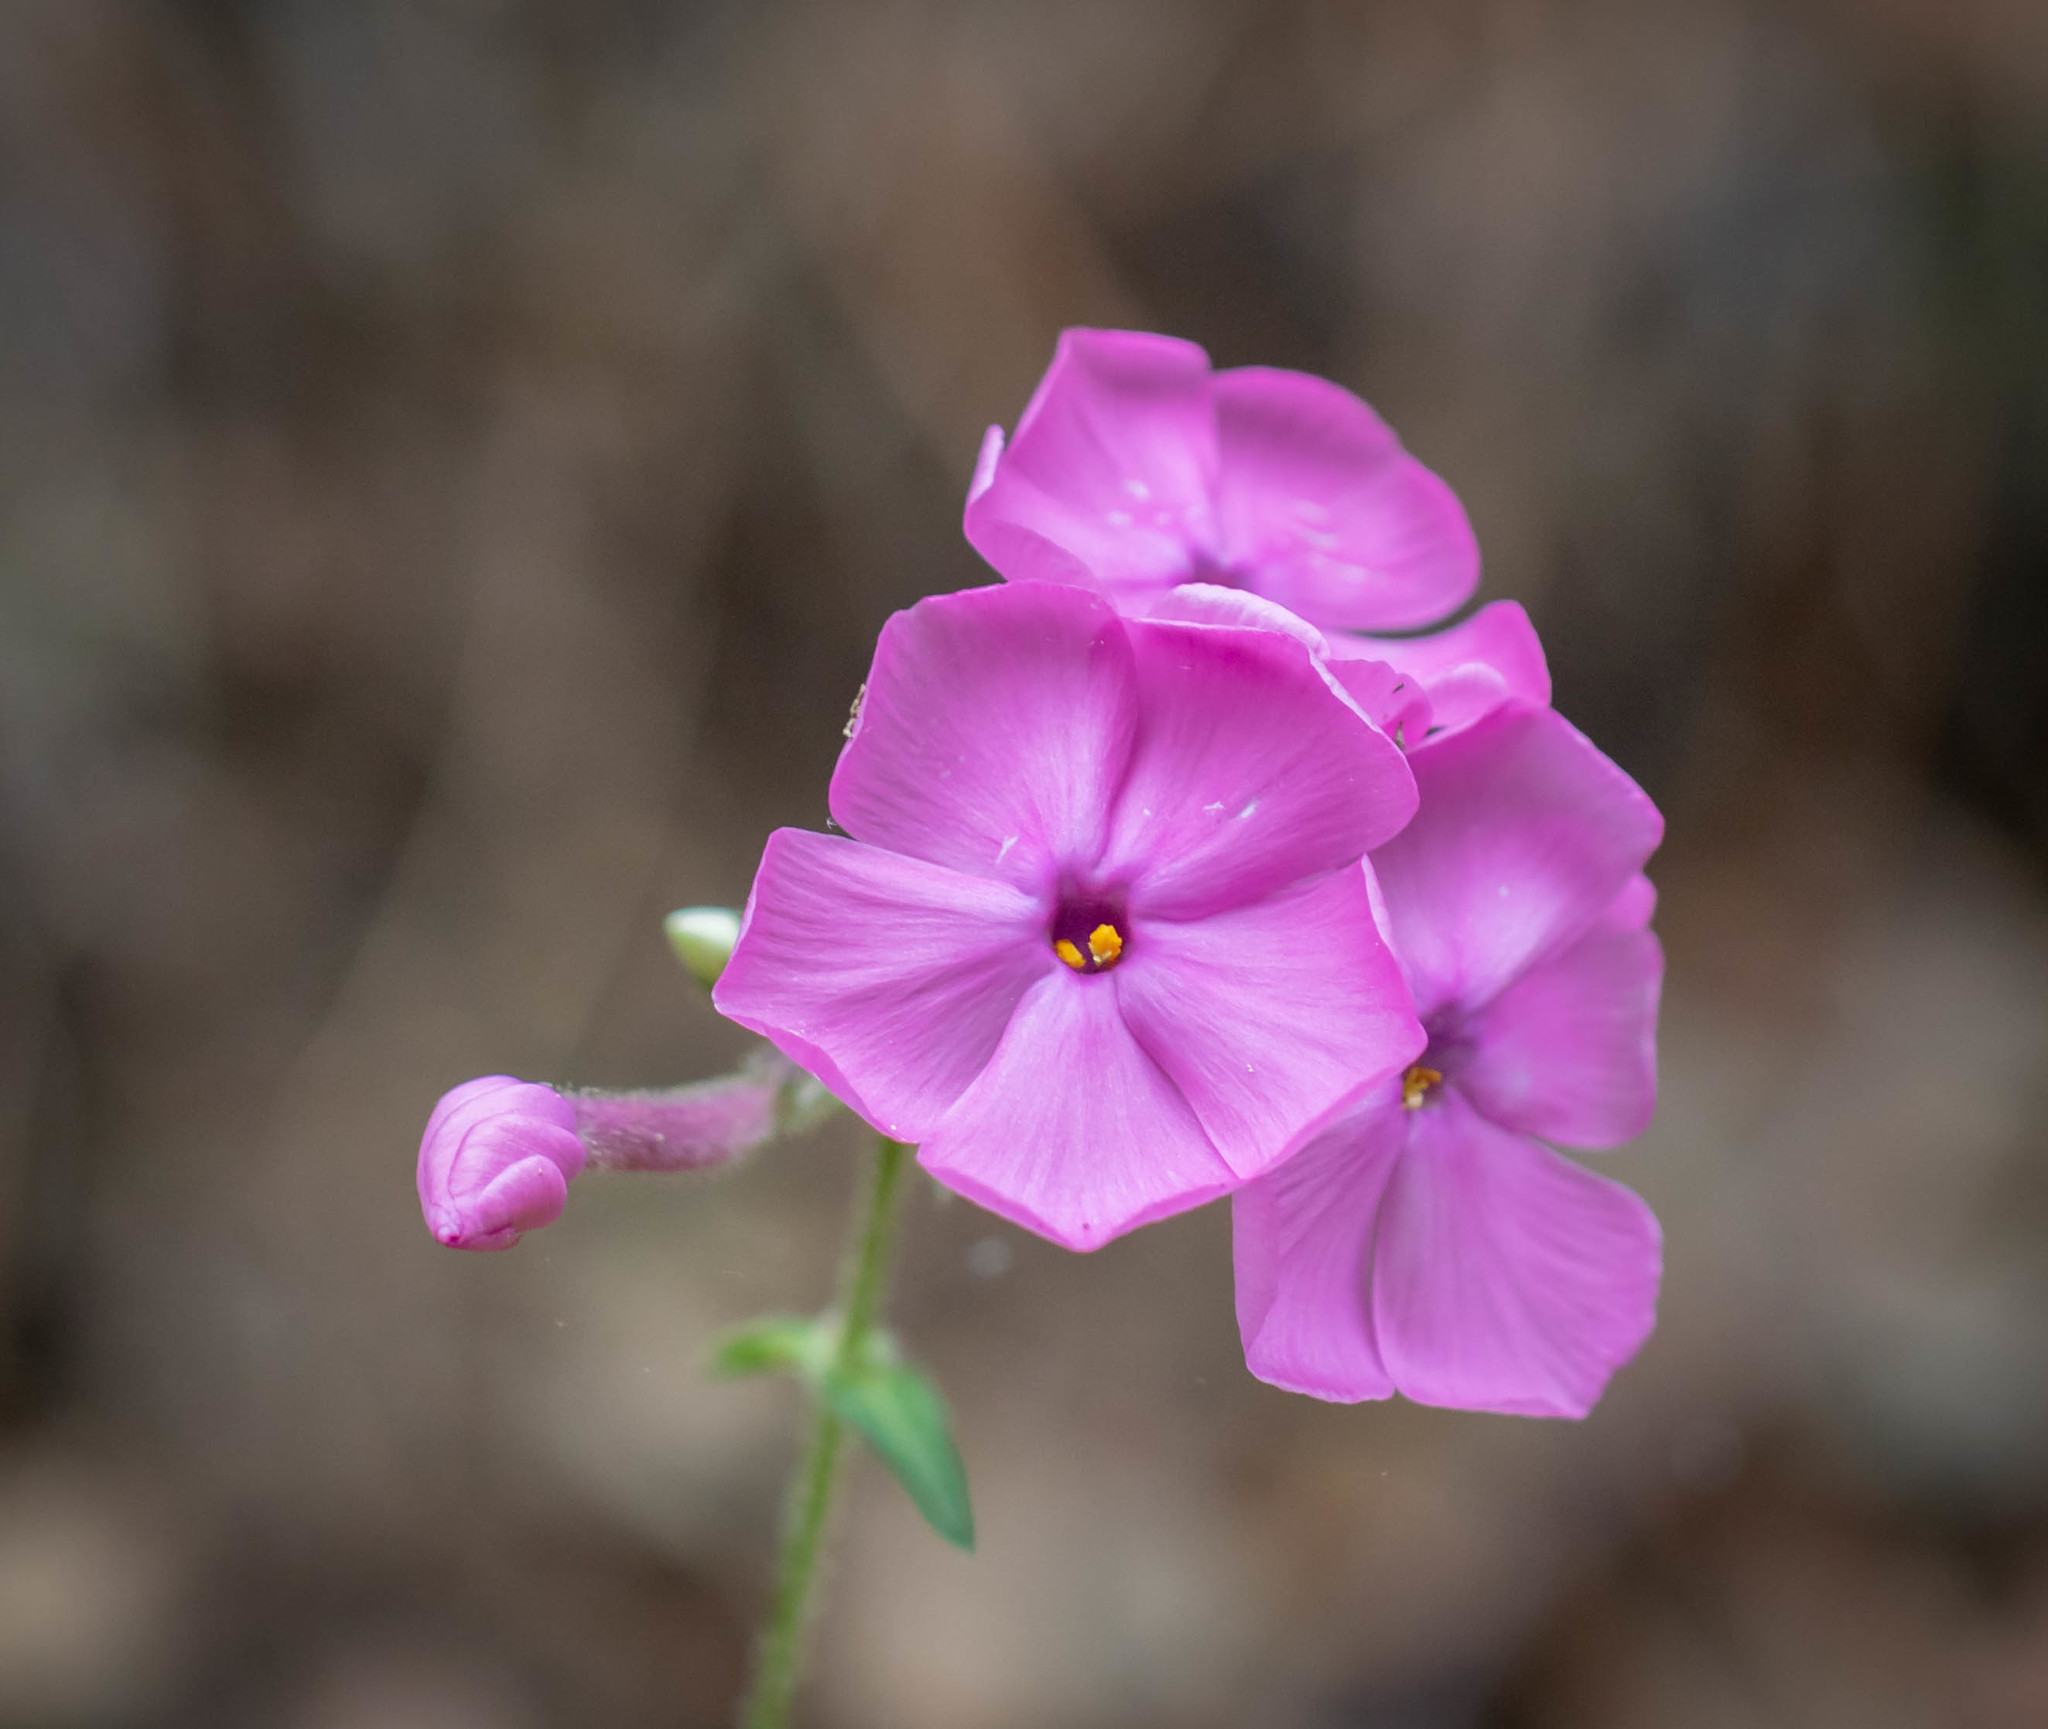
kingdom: Plantae
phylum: Tracheophyta
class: Magnoliopsida
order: Ericales
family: Polemoniaceae
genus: Phlox
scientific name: Phlox buckleyi
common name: Shale-barren phlox
